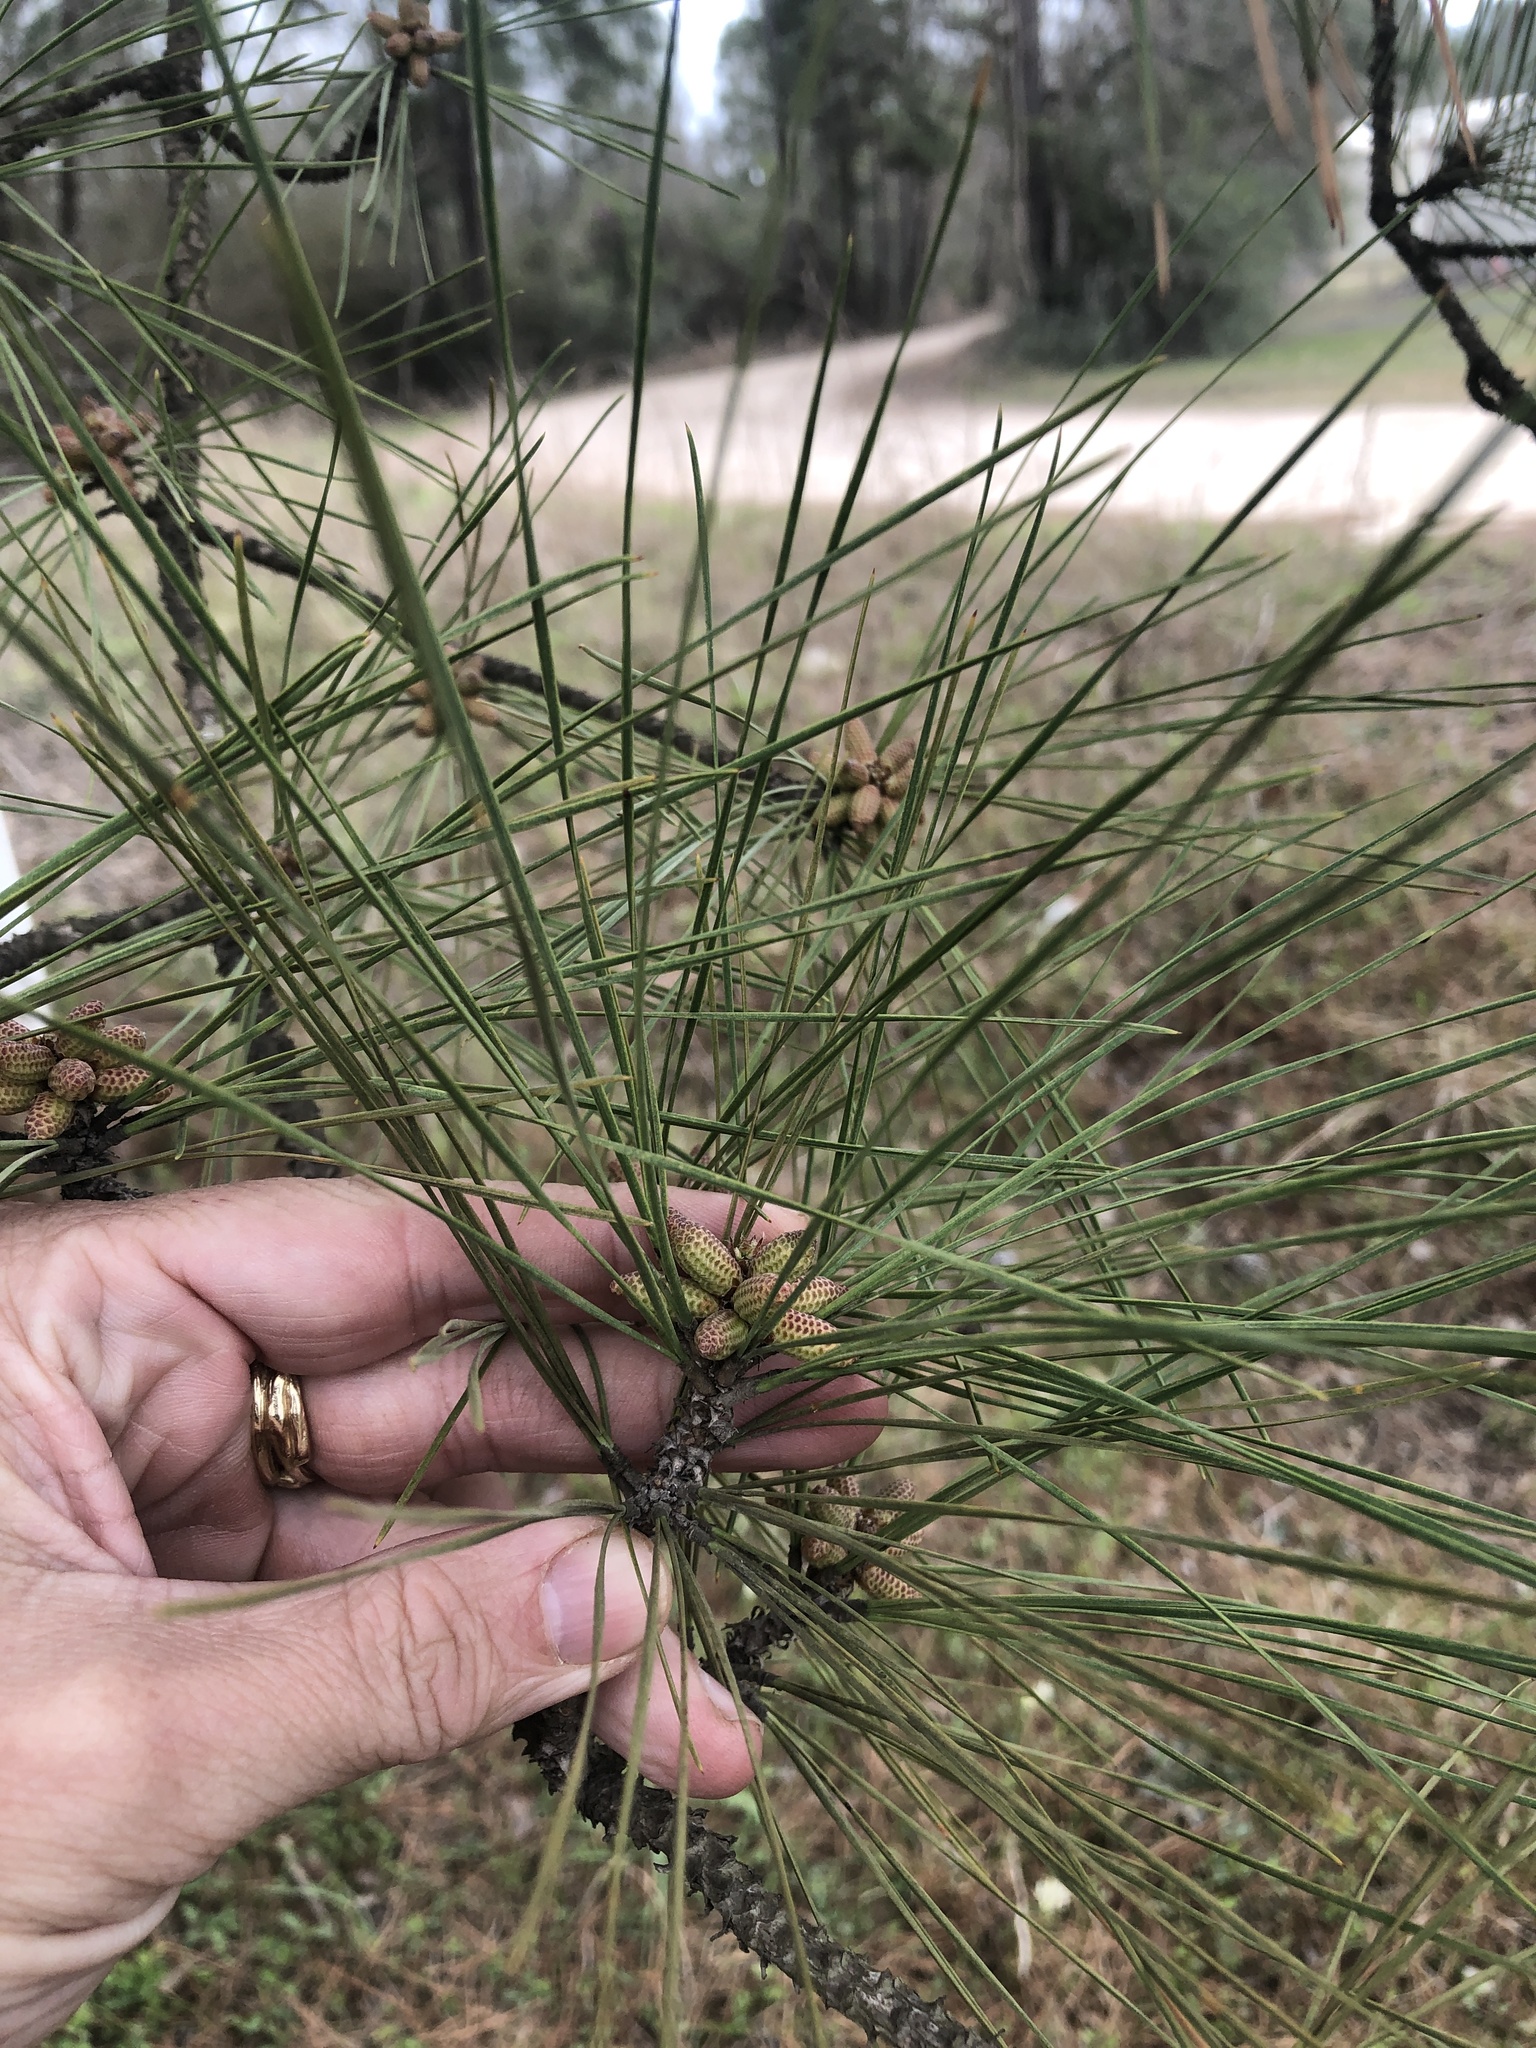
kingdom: Plantae
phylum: Tracheophyta
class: Pinopsida
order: Pinales
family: Pinaceae
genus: Pinus
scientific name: Pinus taeda
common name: Loblolly pine
